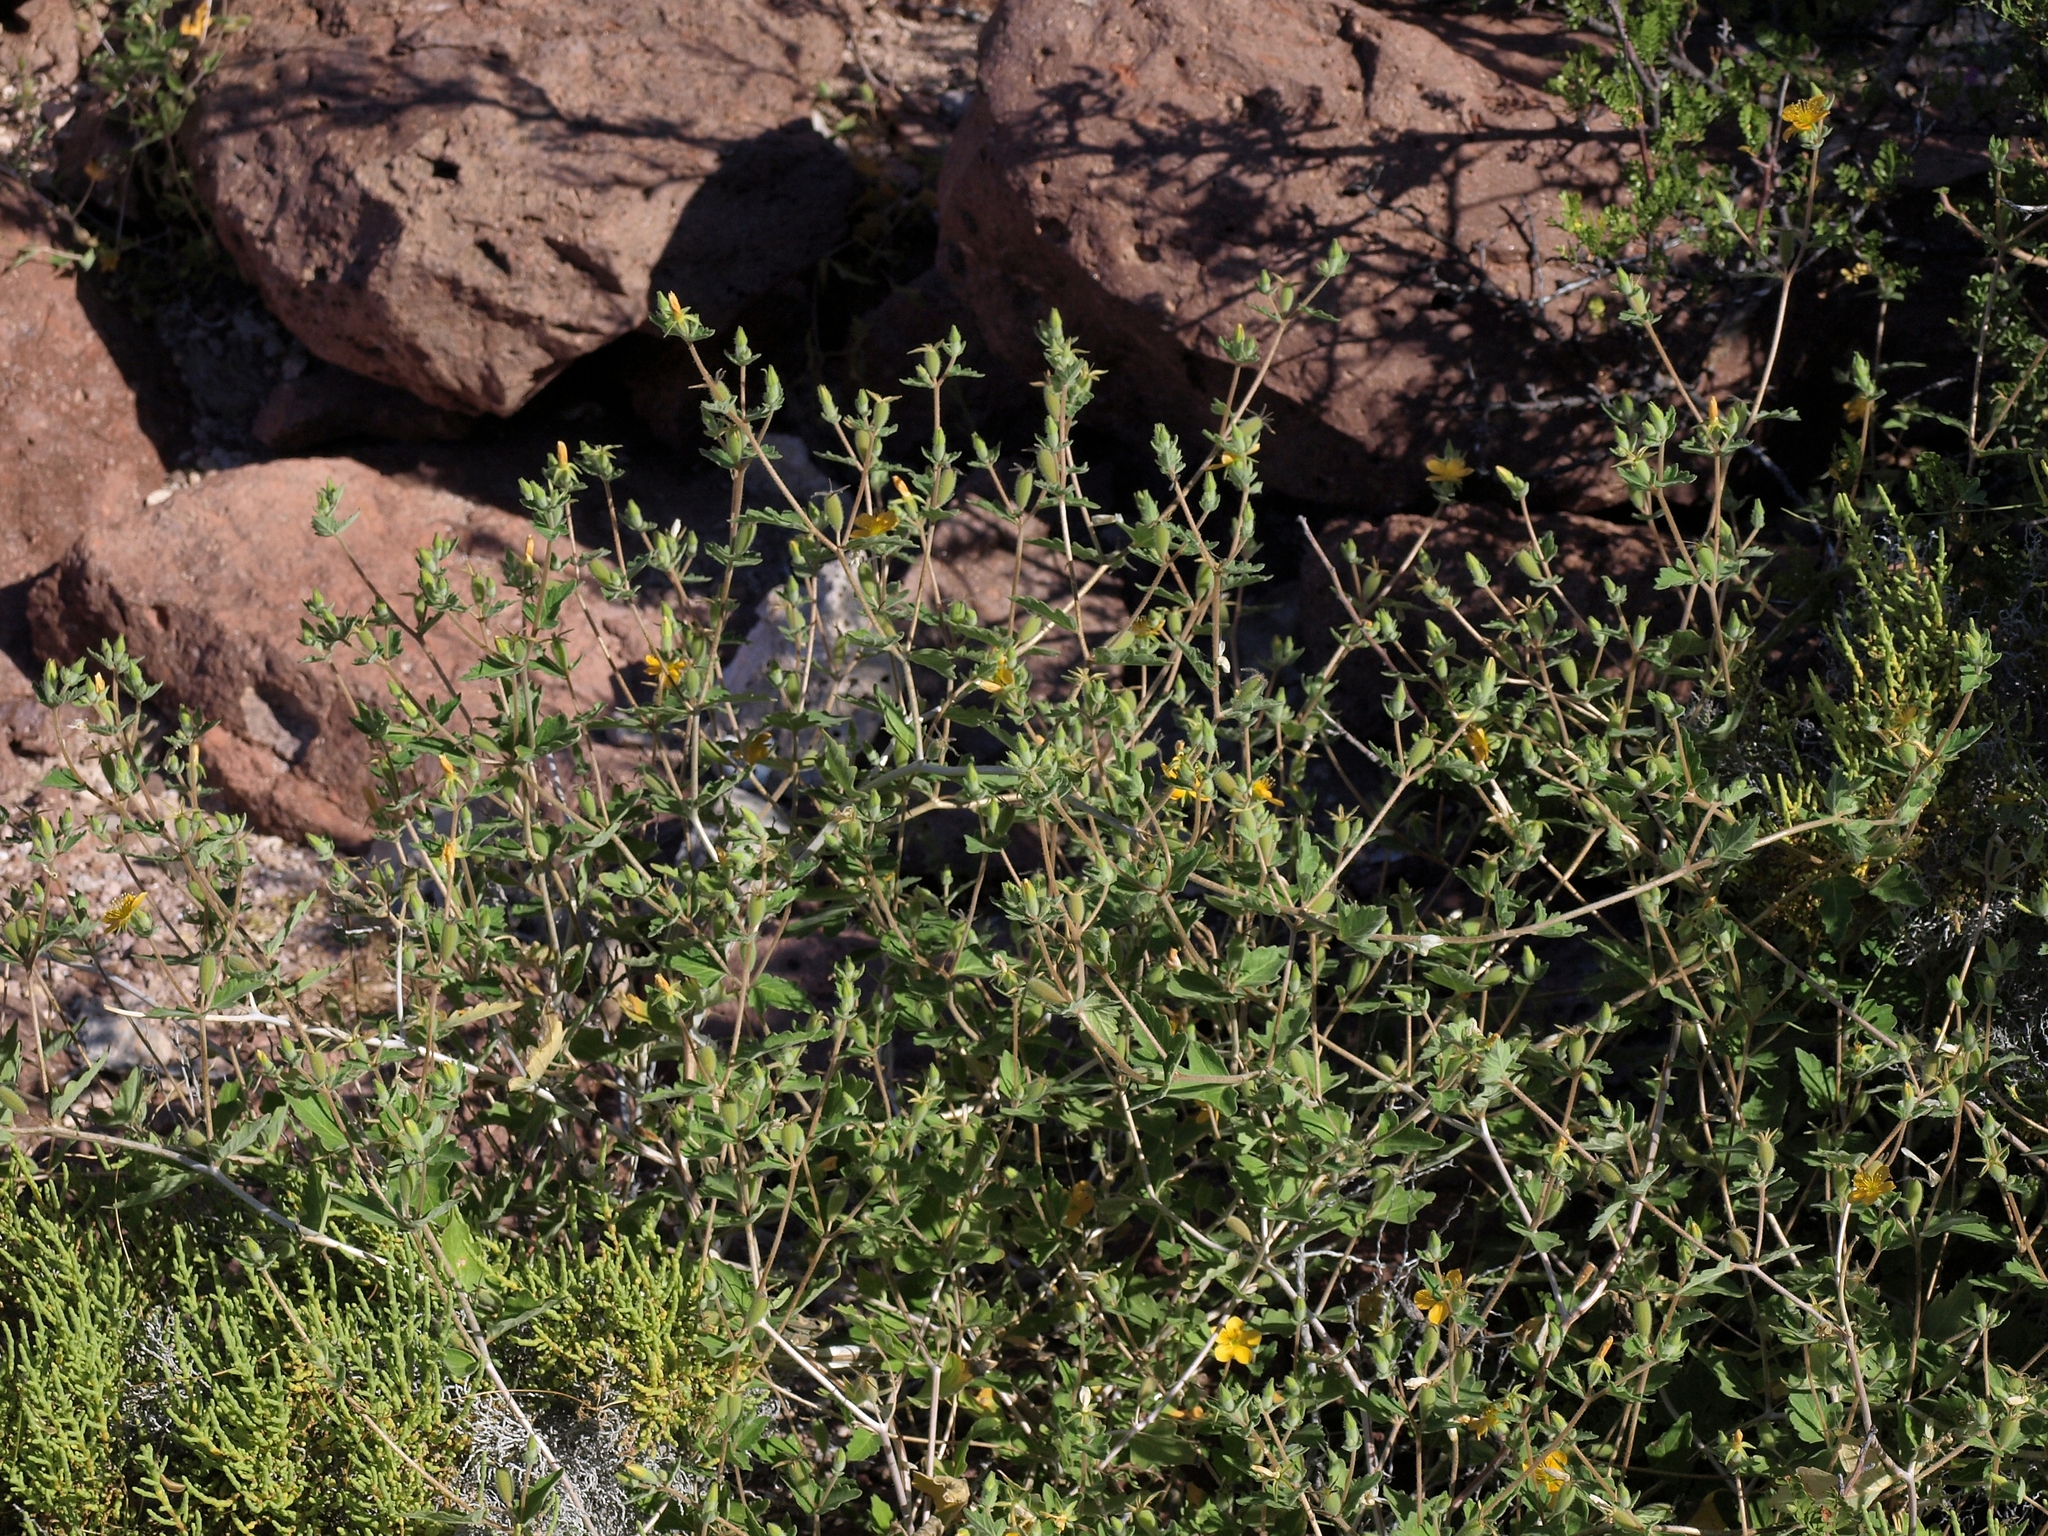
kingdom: Plantae
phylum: Tracheophyta
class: Magnoliopsida
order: Cornales
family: Loasaceae
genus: Mentzelia
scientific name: Mentzelia adhaerens
